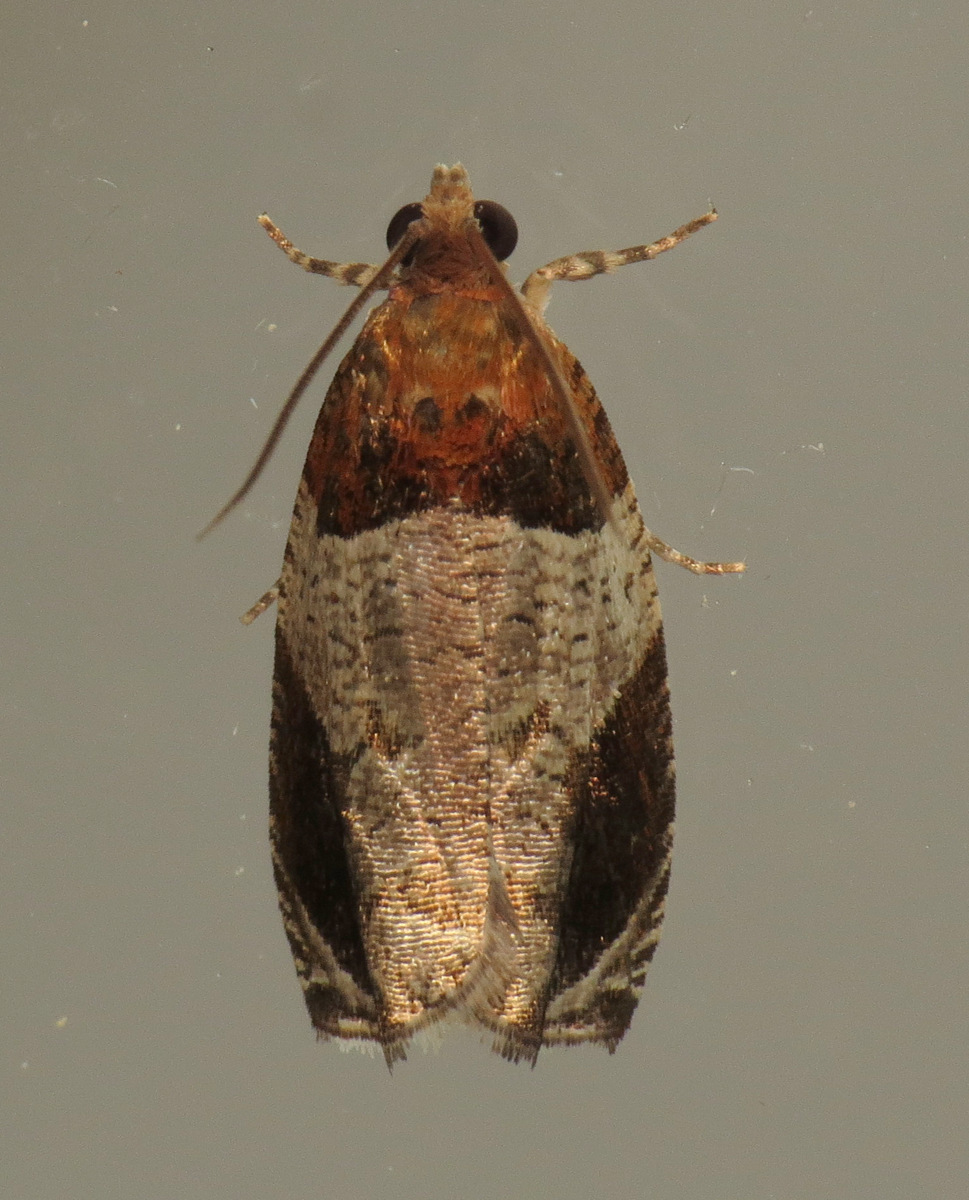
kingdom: Animalia
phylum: Arthropoda
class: Insecta
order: Lepidoptera
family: Tortricidae
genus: Olethreutes
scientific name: Olethreutes ferriferana
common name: Hydrangea leaftier moth
